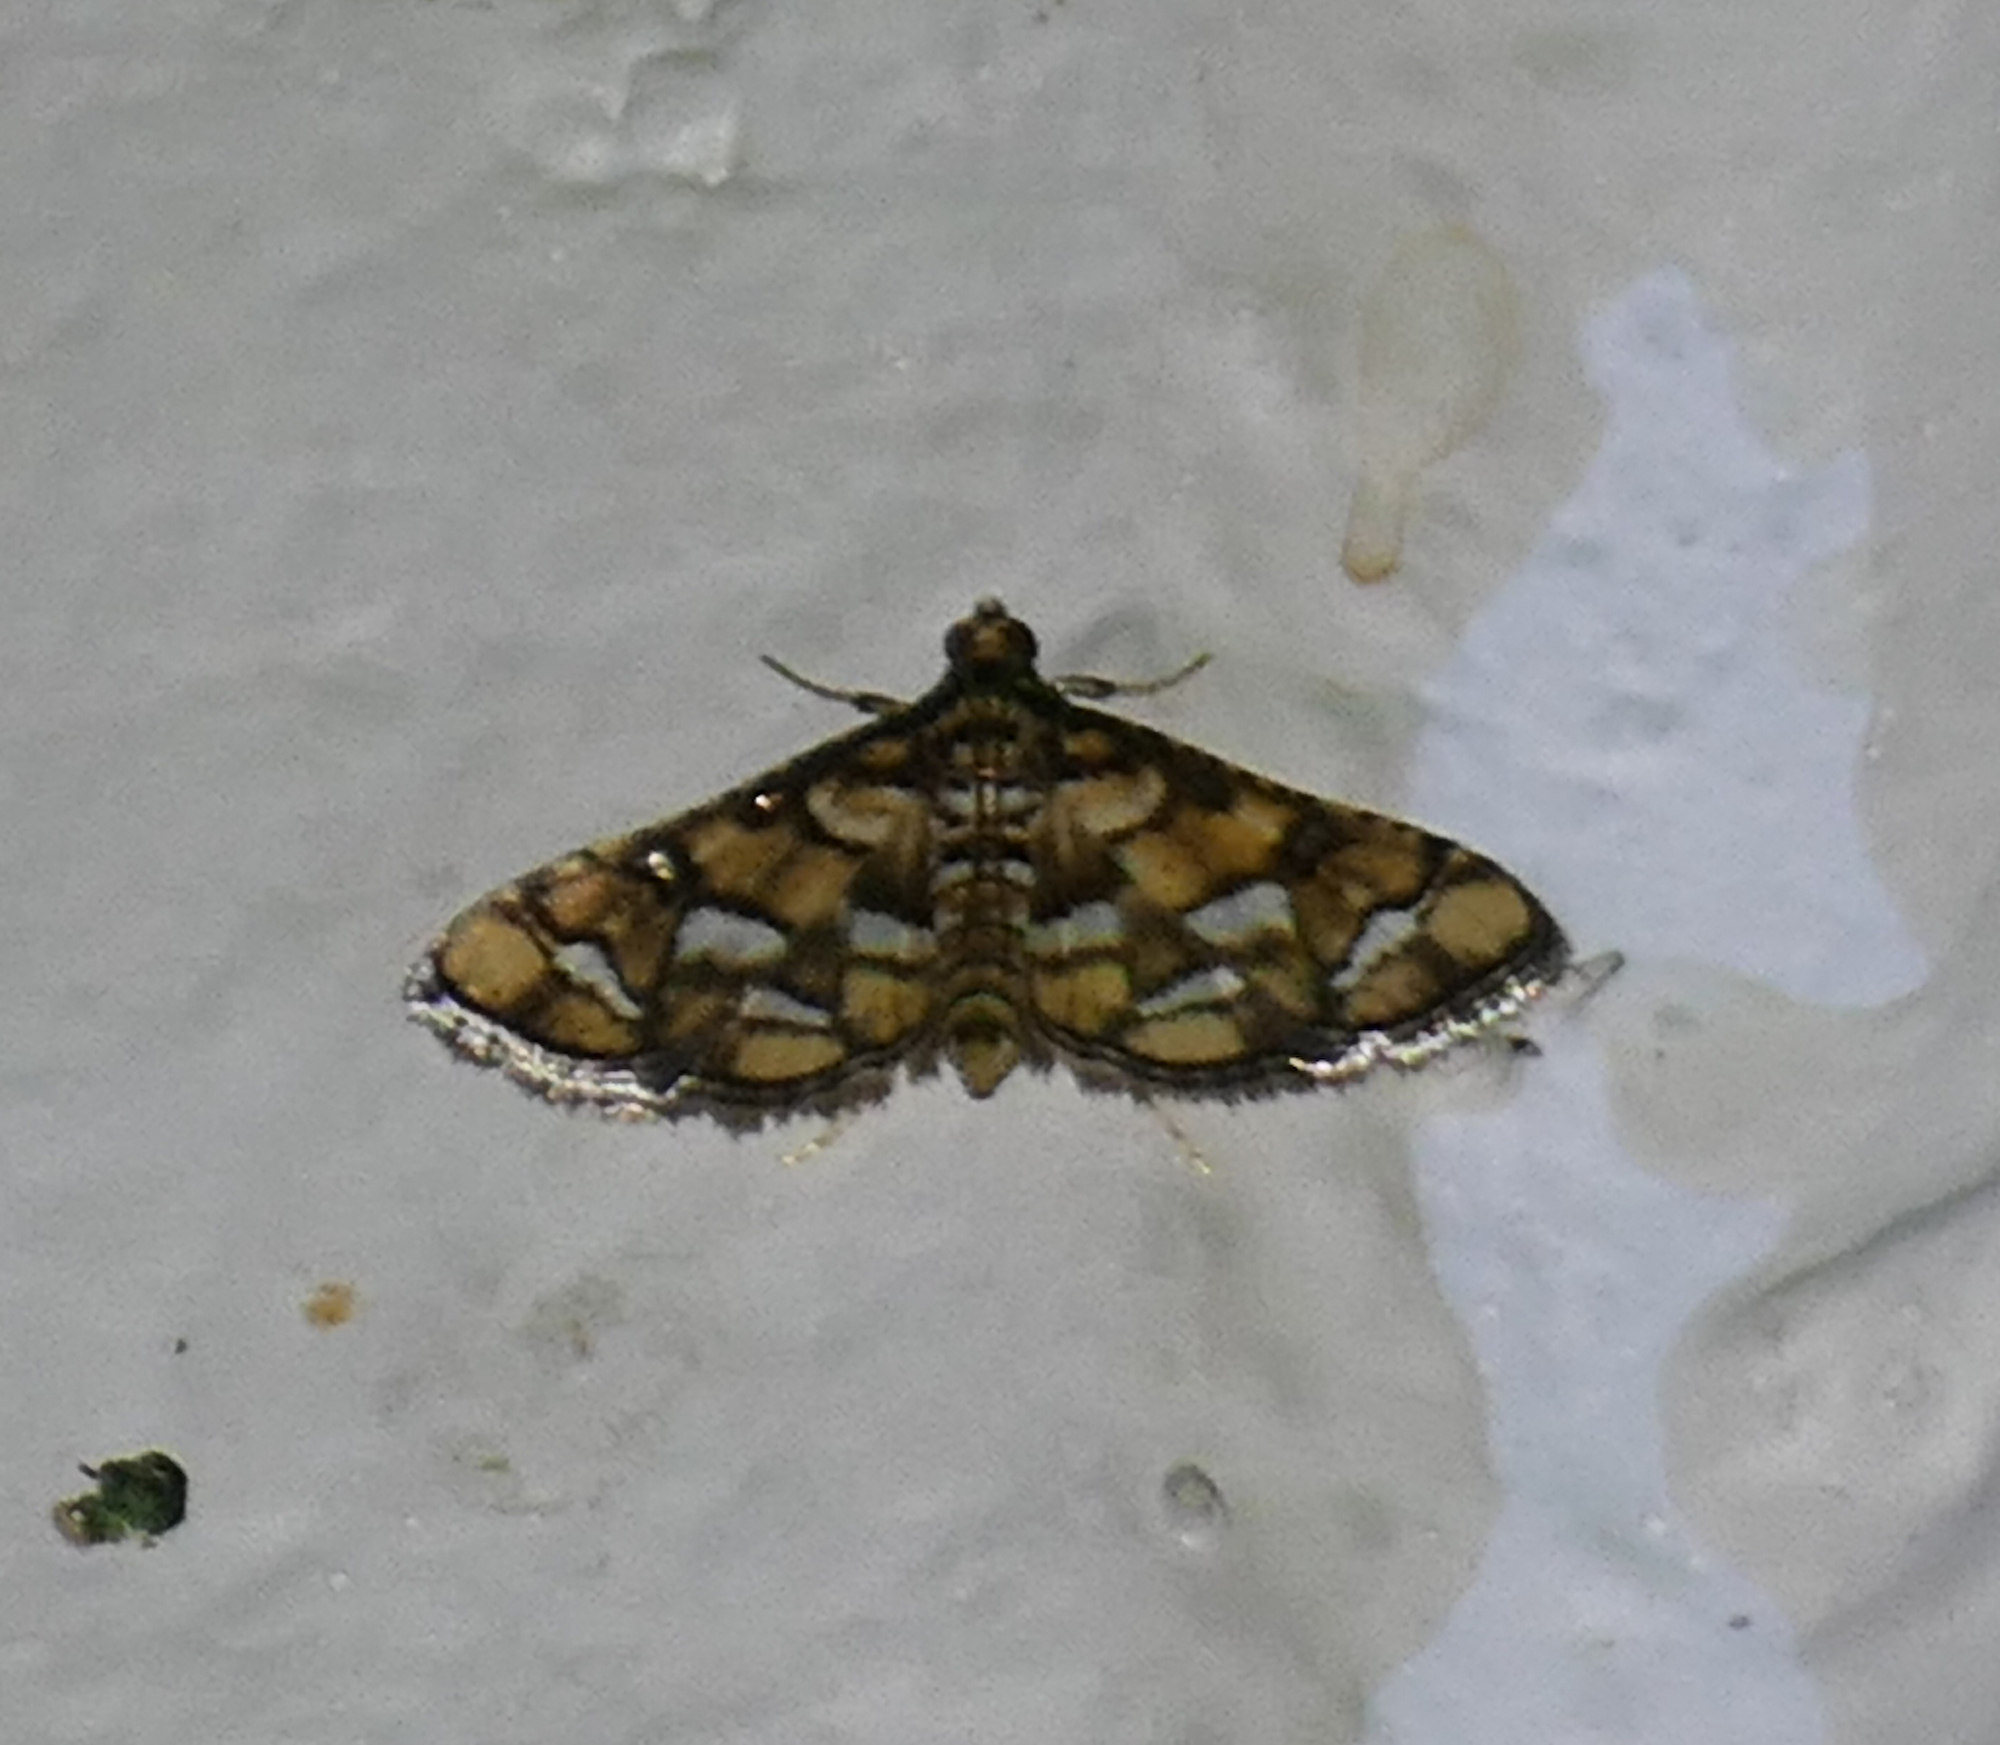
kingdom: Animalia
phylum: Arthropoda
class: Insecta
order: Lepidoptera
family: Crambidae
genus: Hileithia
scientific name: Hileithia magualis
